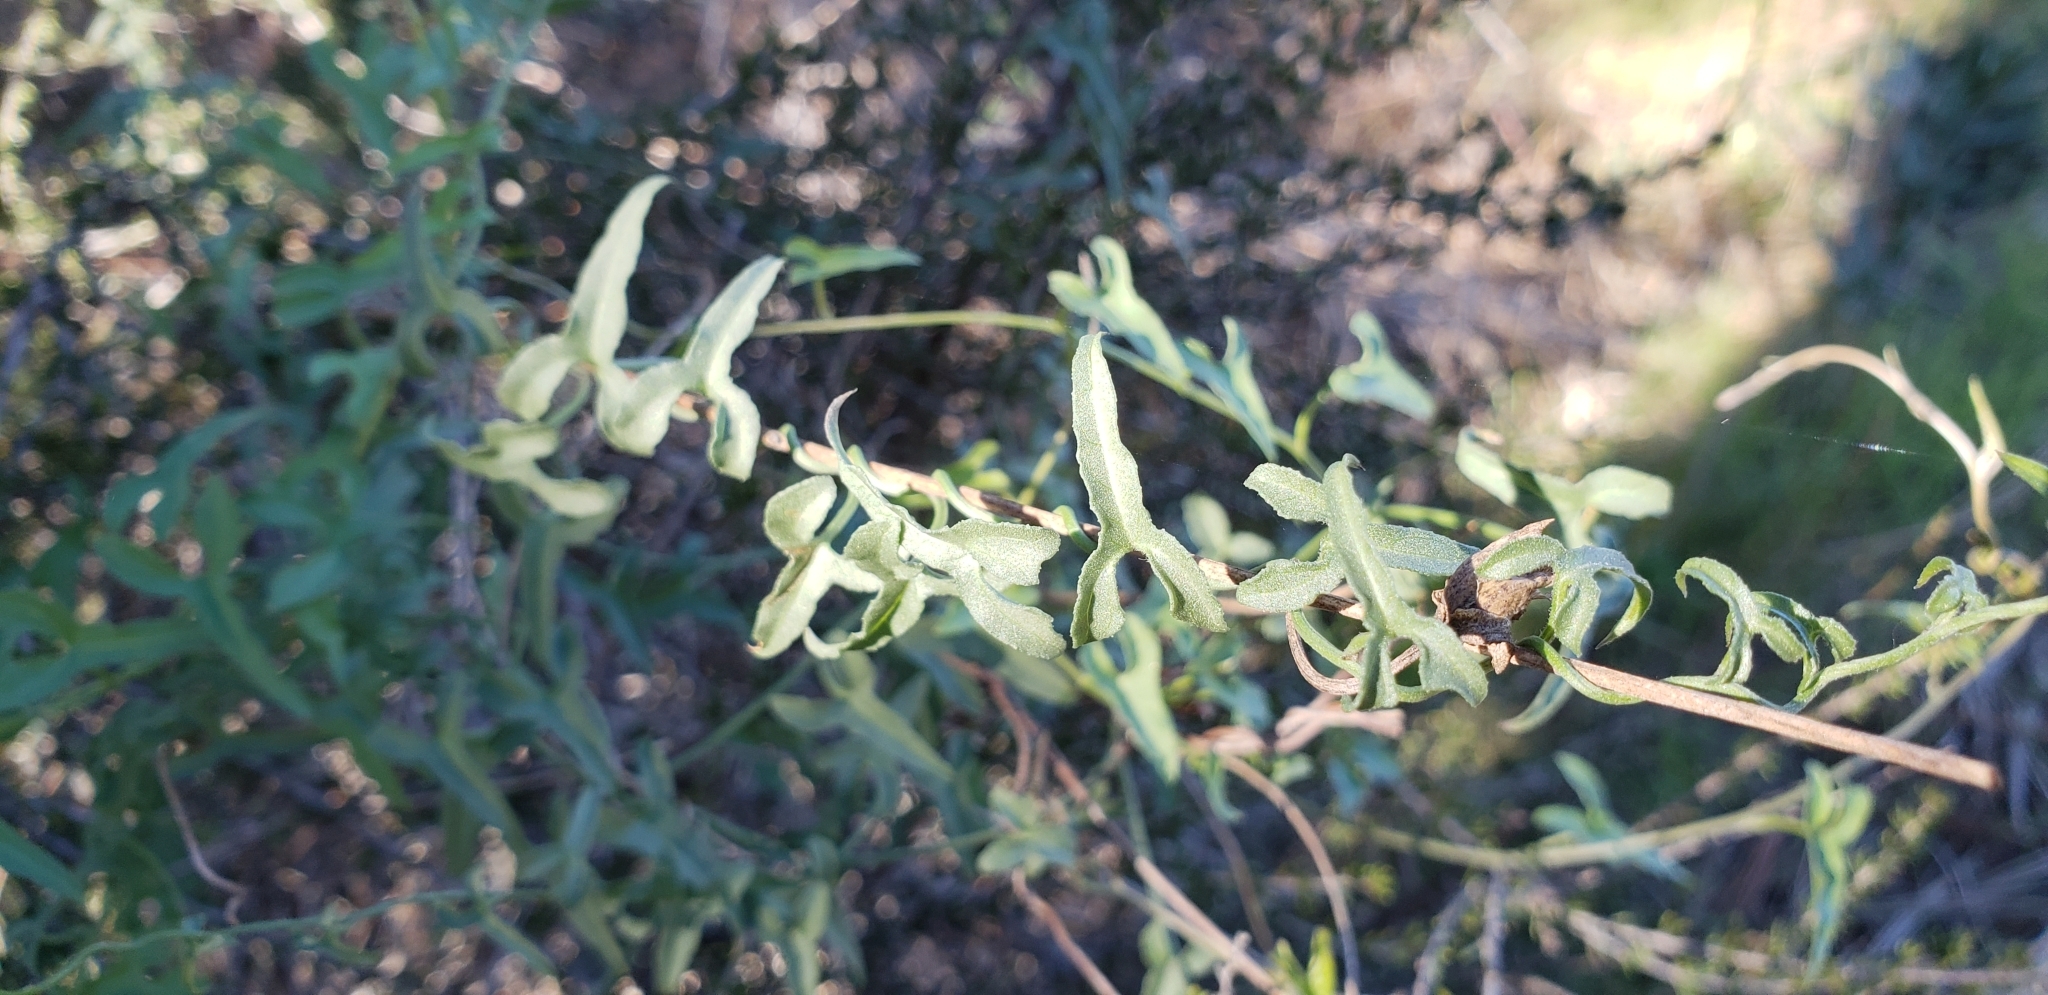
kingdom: Plantae
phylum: Tracheophyta
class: Magnoliopsida
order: Solanales
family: Convolvulaceae
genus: Calystegia
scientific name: Calystegia macrostegia
